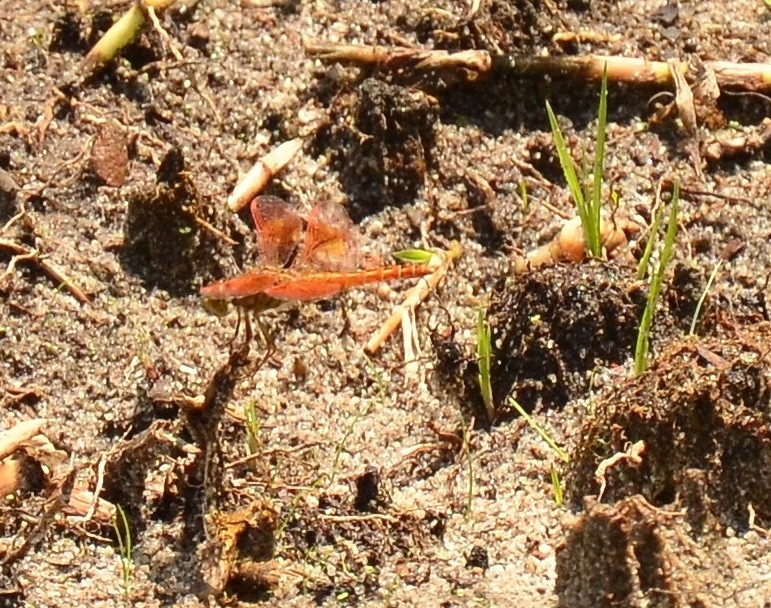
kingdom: Animalia
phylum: Arthropoda
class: Insecta
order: Odonata
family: Libellulidae
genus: Brachythemis
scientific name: Brachythemis contaminata
